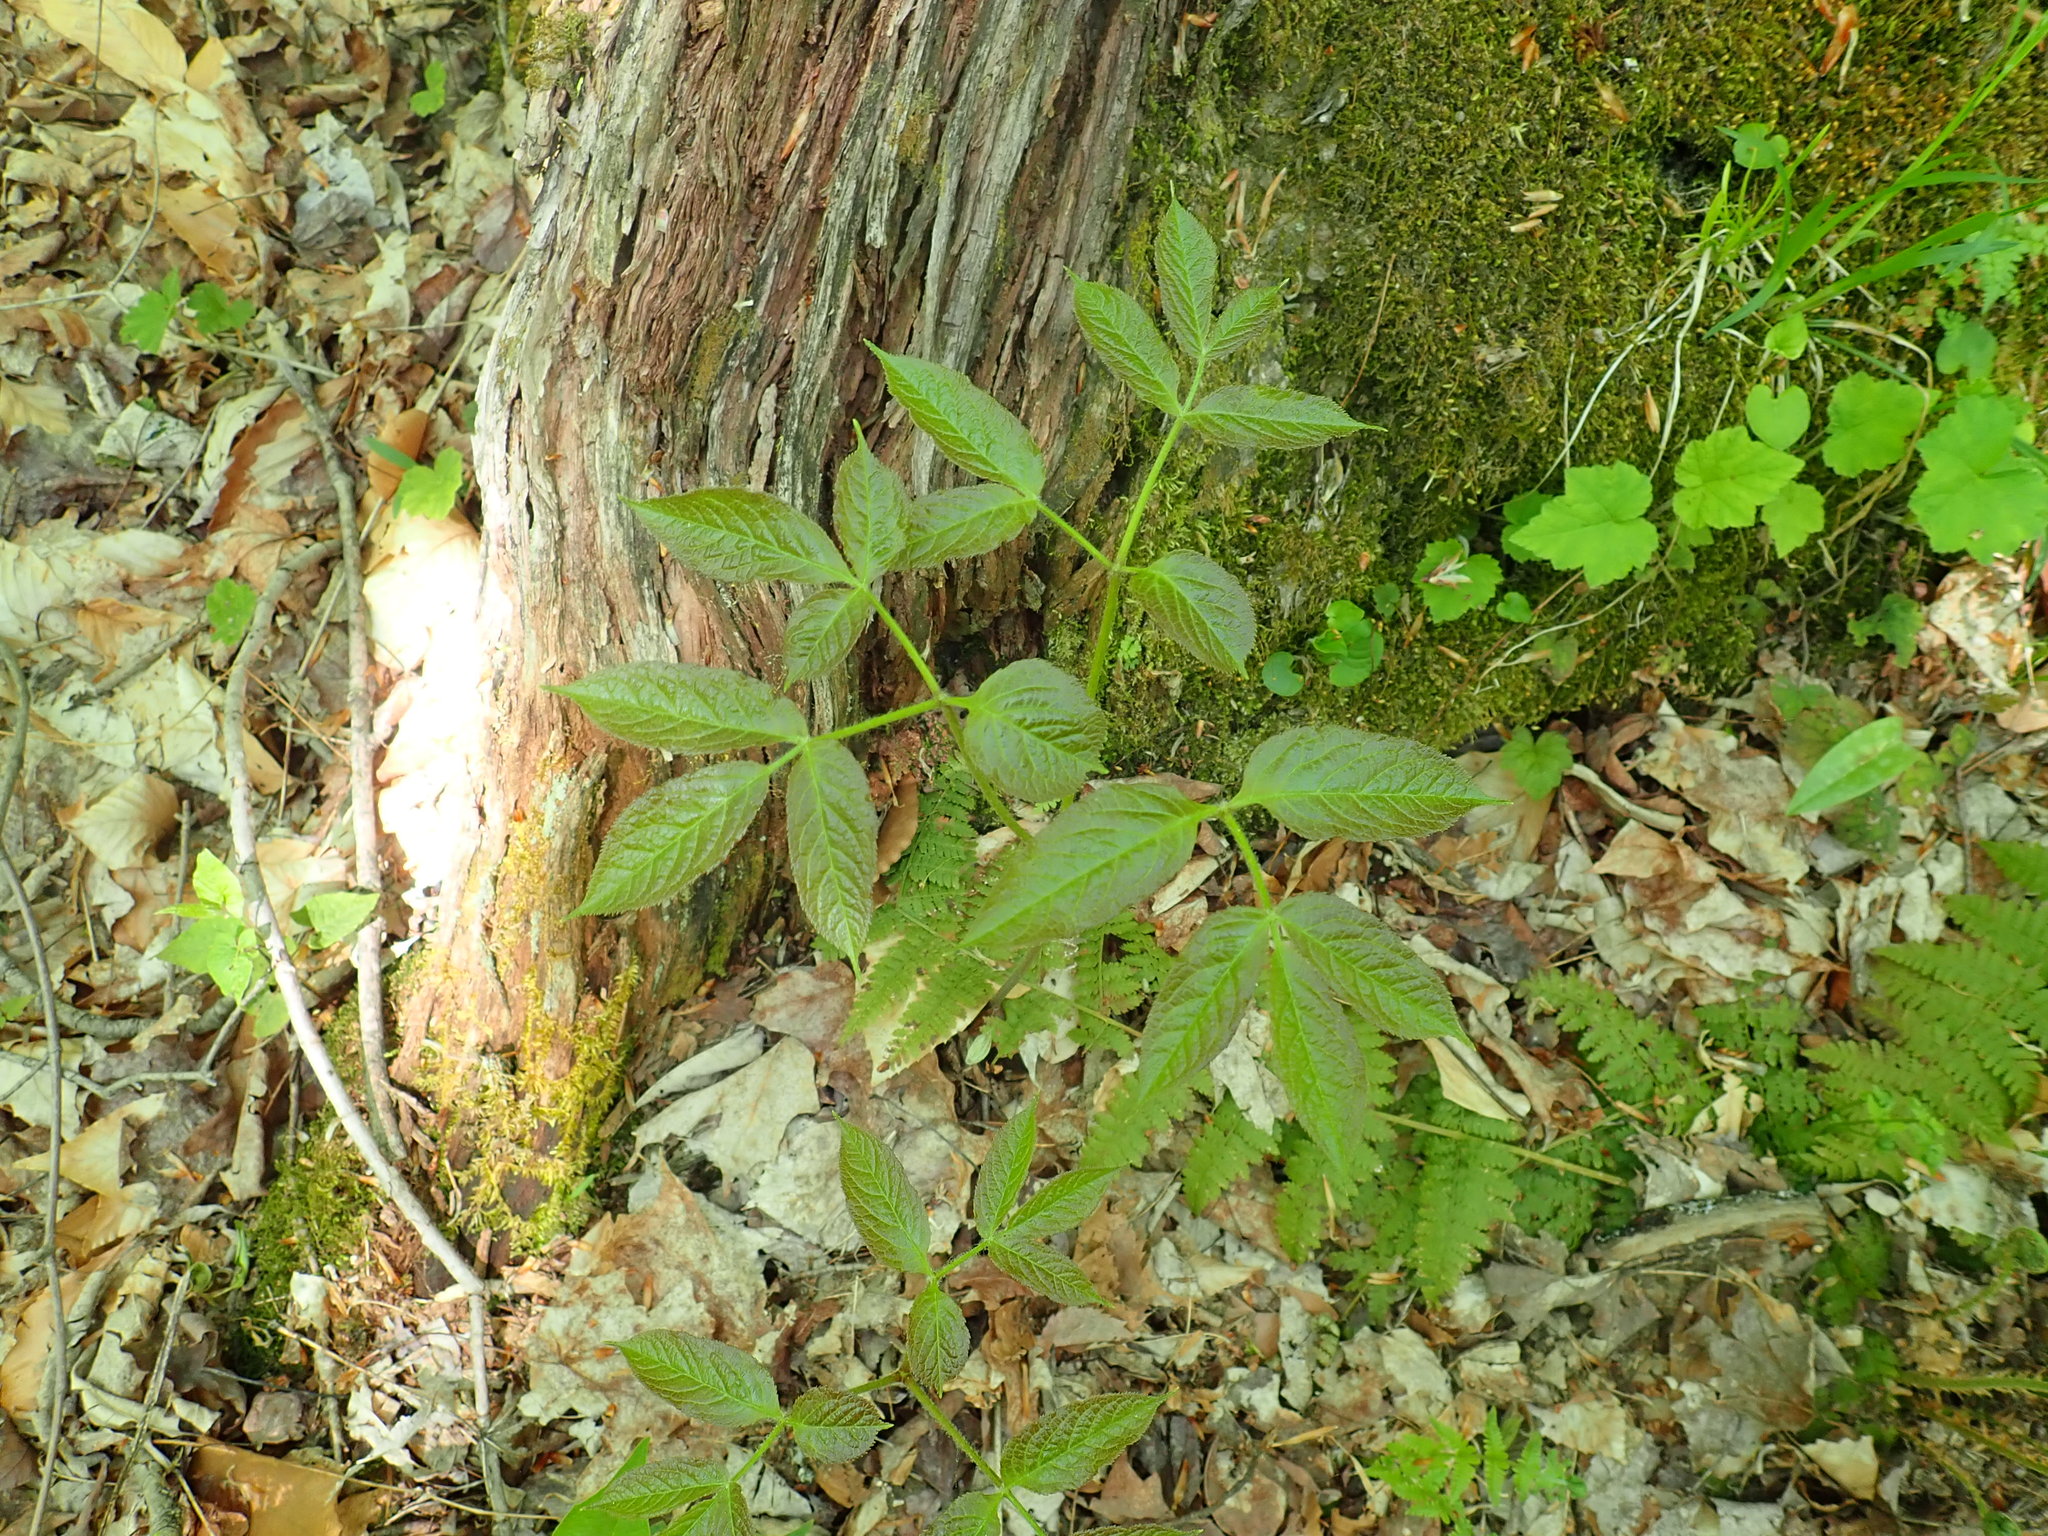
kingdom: Plantae
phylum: Tracheophyta
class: Magnoliopsida
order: Apiales
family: Araliaceae
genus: Aralia
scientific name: Aralia nudicaulis
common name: Wild sarsaparilla
